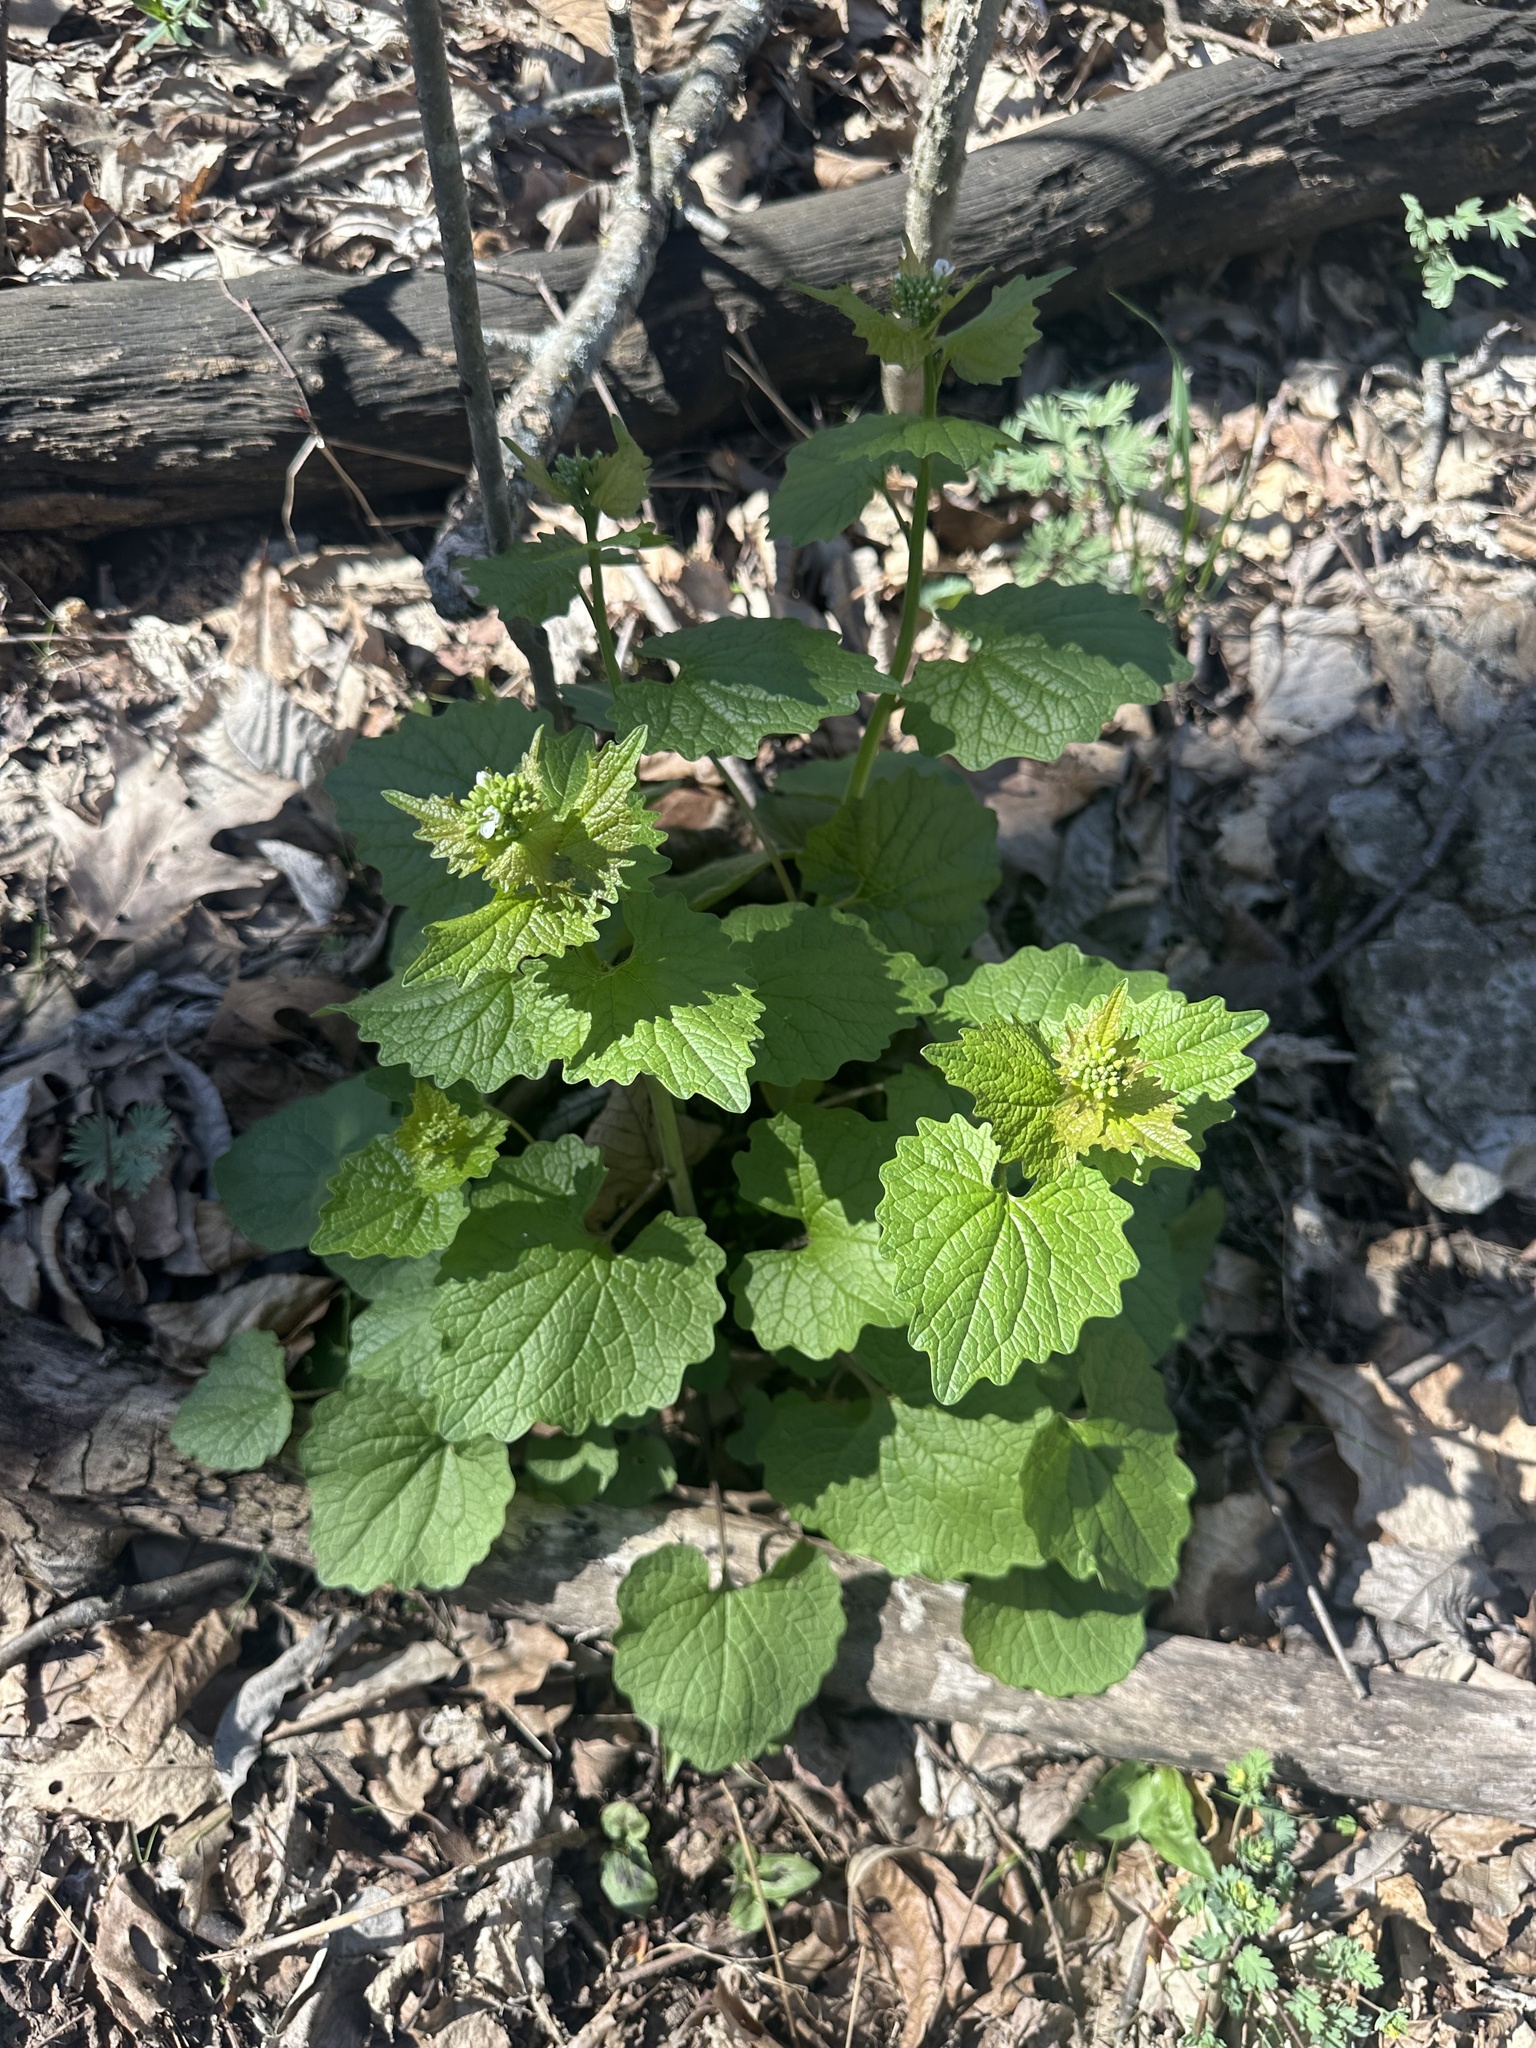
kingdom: Plantae
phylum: Tracheophyta
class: Magnoliopsida
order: Brassicales
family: Brassicaceae
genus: Alliaria
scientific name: Alliaria petiolata
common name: Garlic mustard
